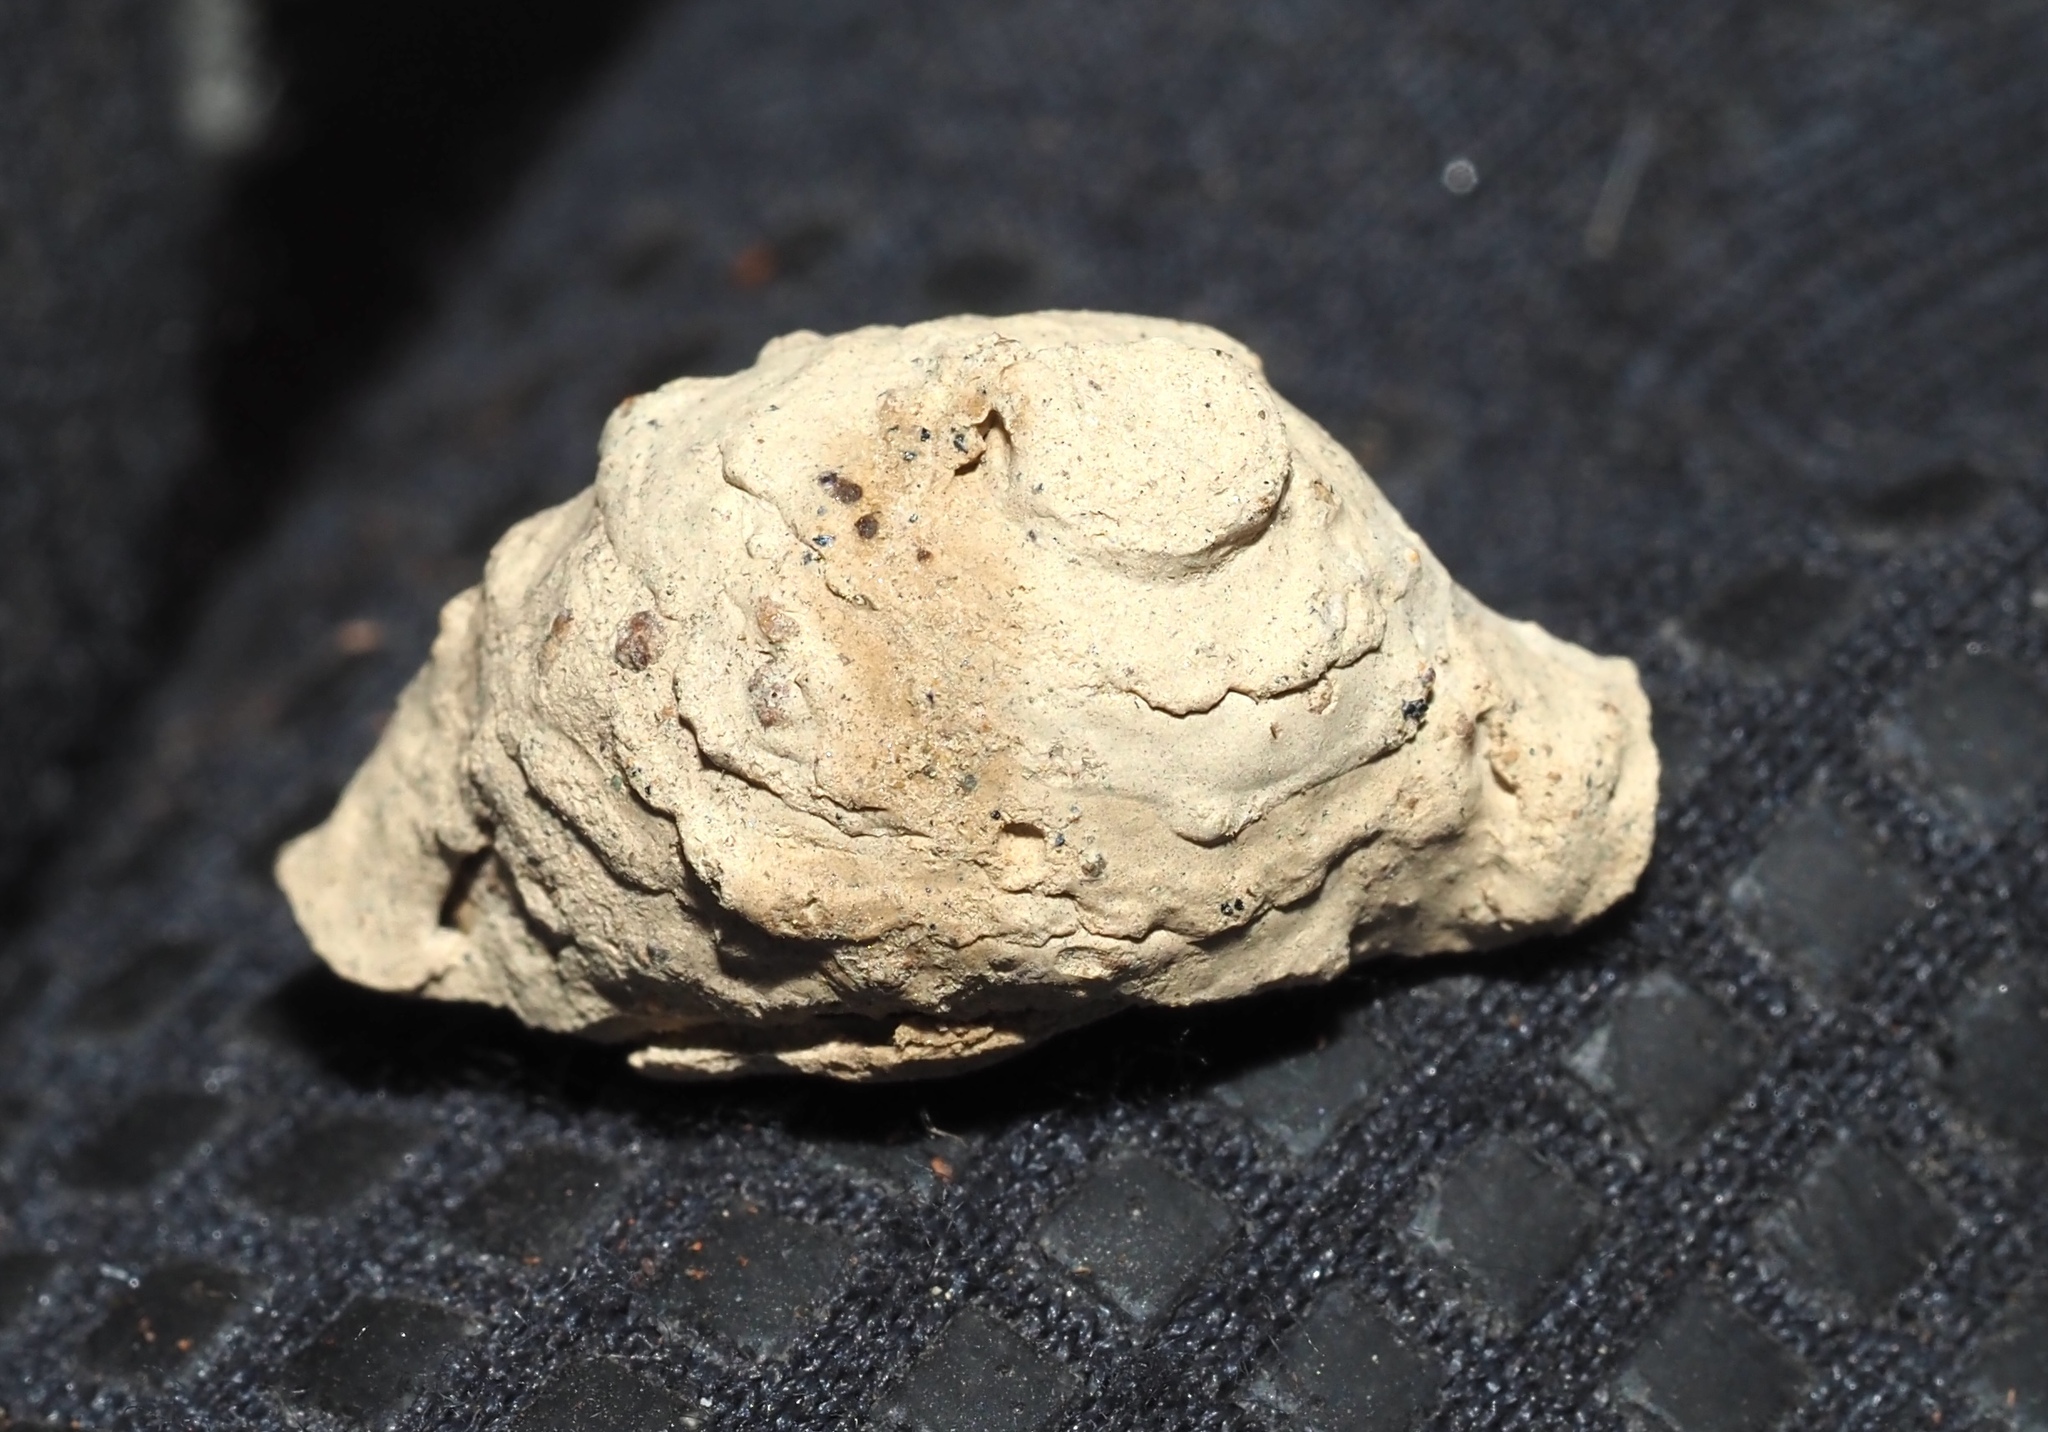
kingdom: Animalia
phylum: Arthropoda
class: Insecta
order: Hymenoptera
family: Eumenidae
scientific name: Eumenidae
